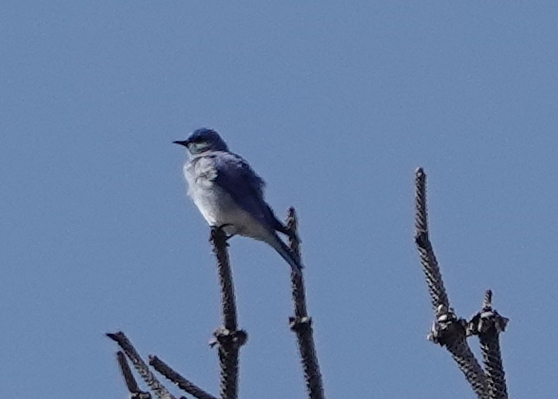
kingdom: Animalia
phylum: Chordata
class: Aves
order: Passeriformes
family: Turdidae
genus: Sialia
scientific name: Sialia currucoides
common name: Mountain bluebird
